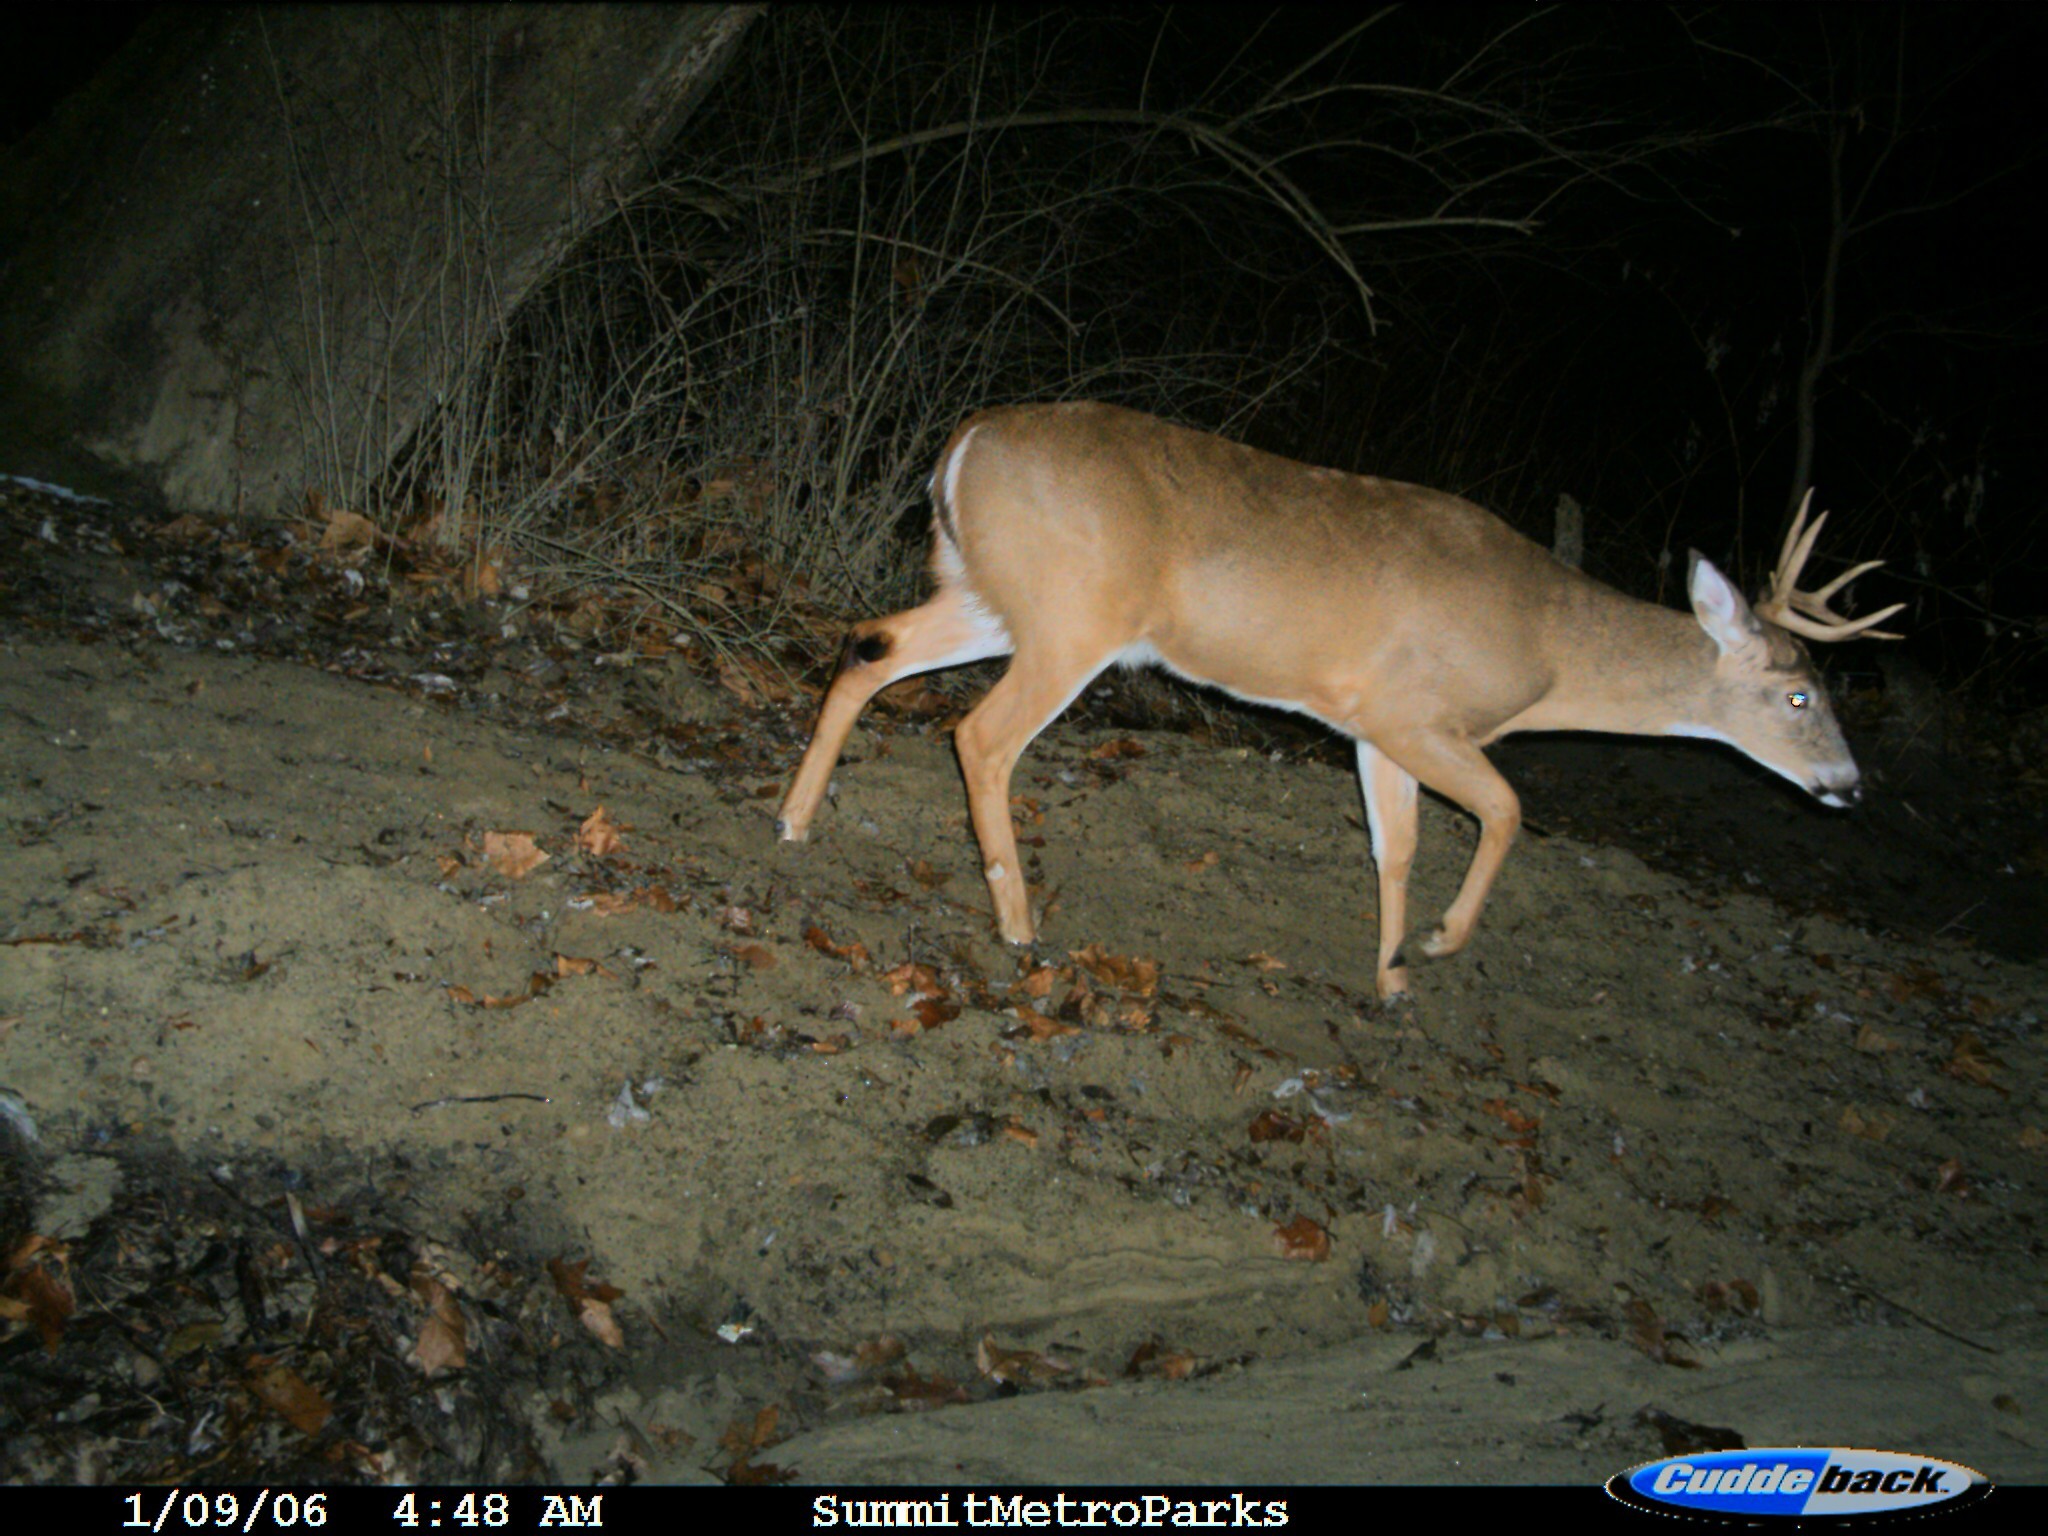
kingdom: Animalia
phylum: Chordata
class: Mammalia
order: Artiodactyla
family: Cervidae
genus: Odocoileus
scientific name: Odocoileus virginianus
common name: White-tailed deer
